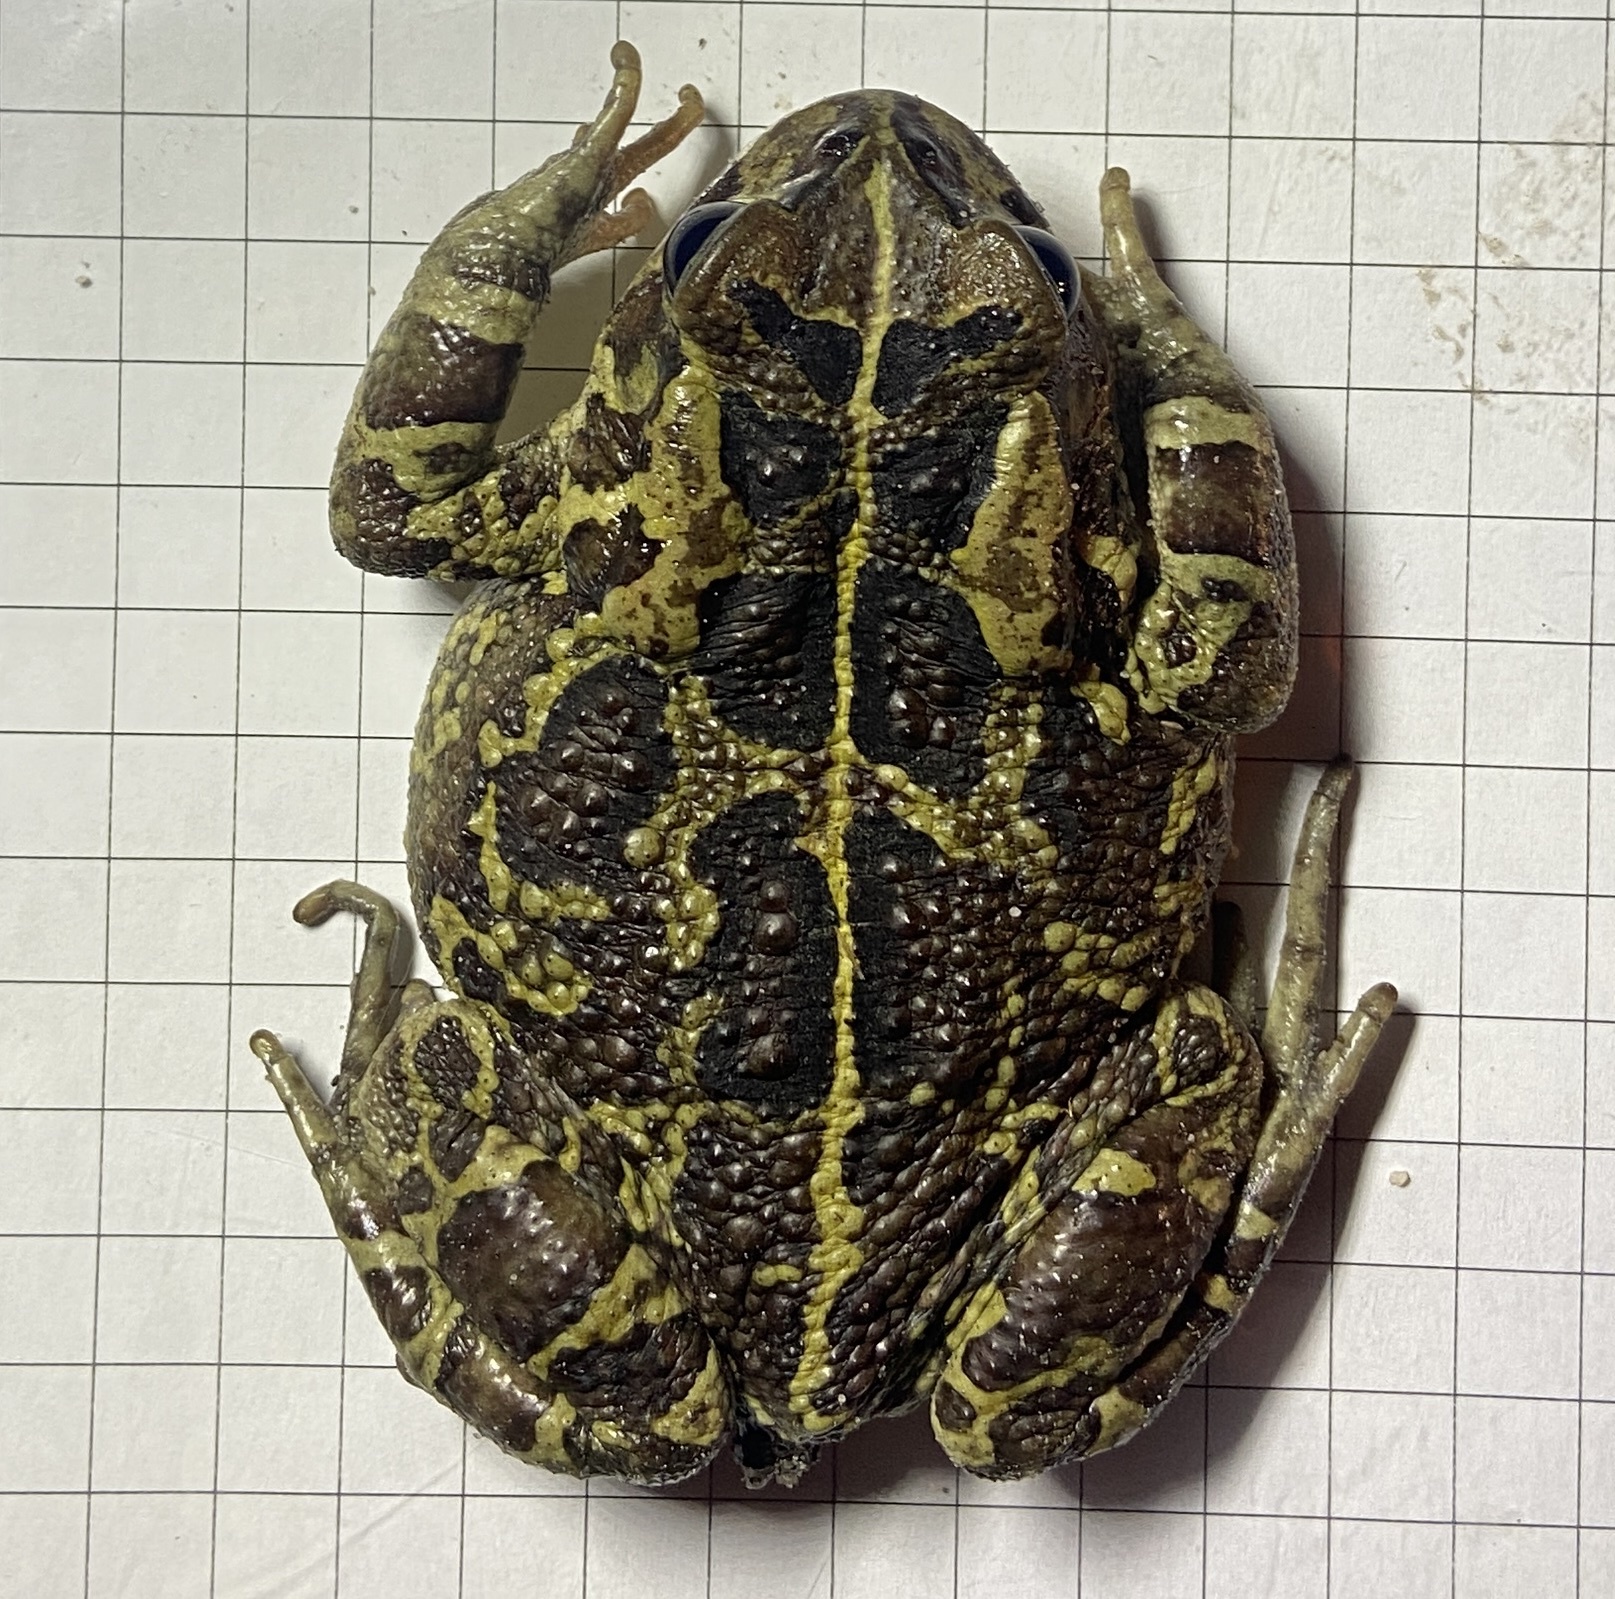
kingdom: Animalia
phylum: Chordata
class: Amphibia
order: Anura
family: Bufonidae
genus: Sclerophrys
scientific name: Sclerophrys pantherina
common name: Panther toad
